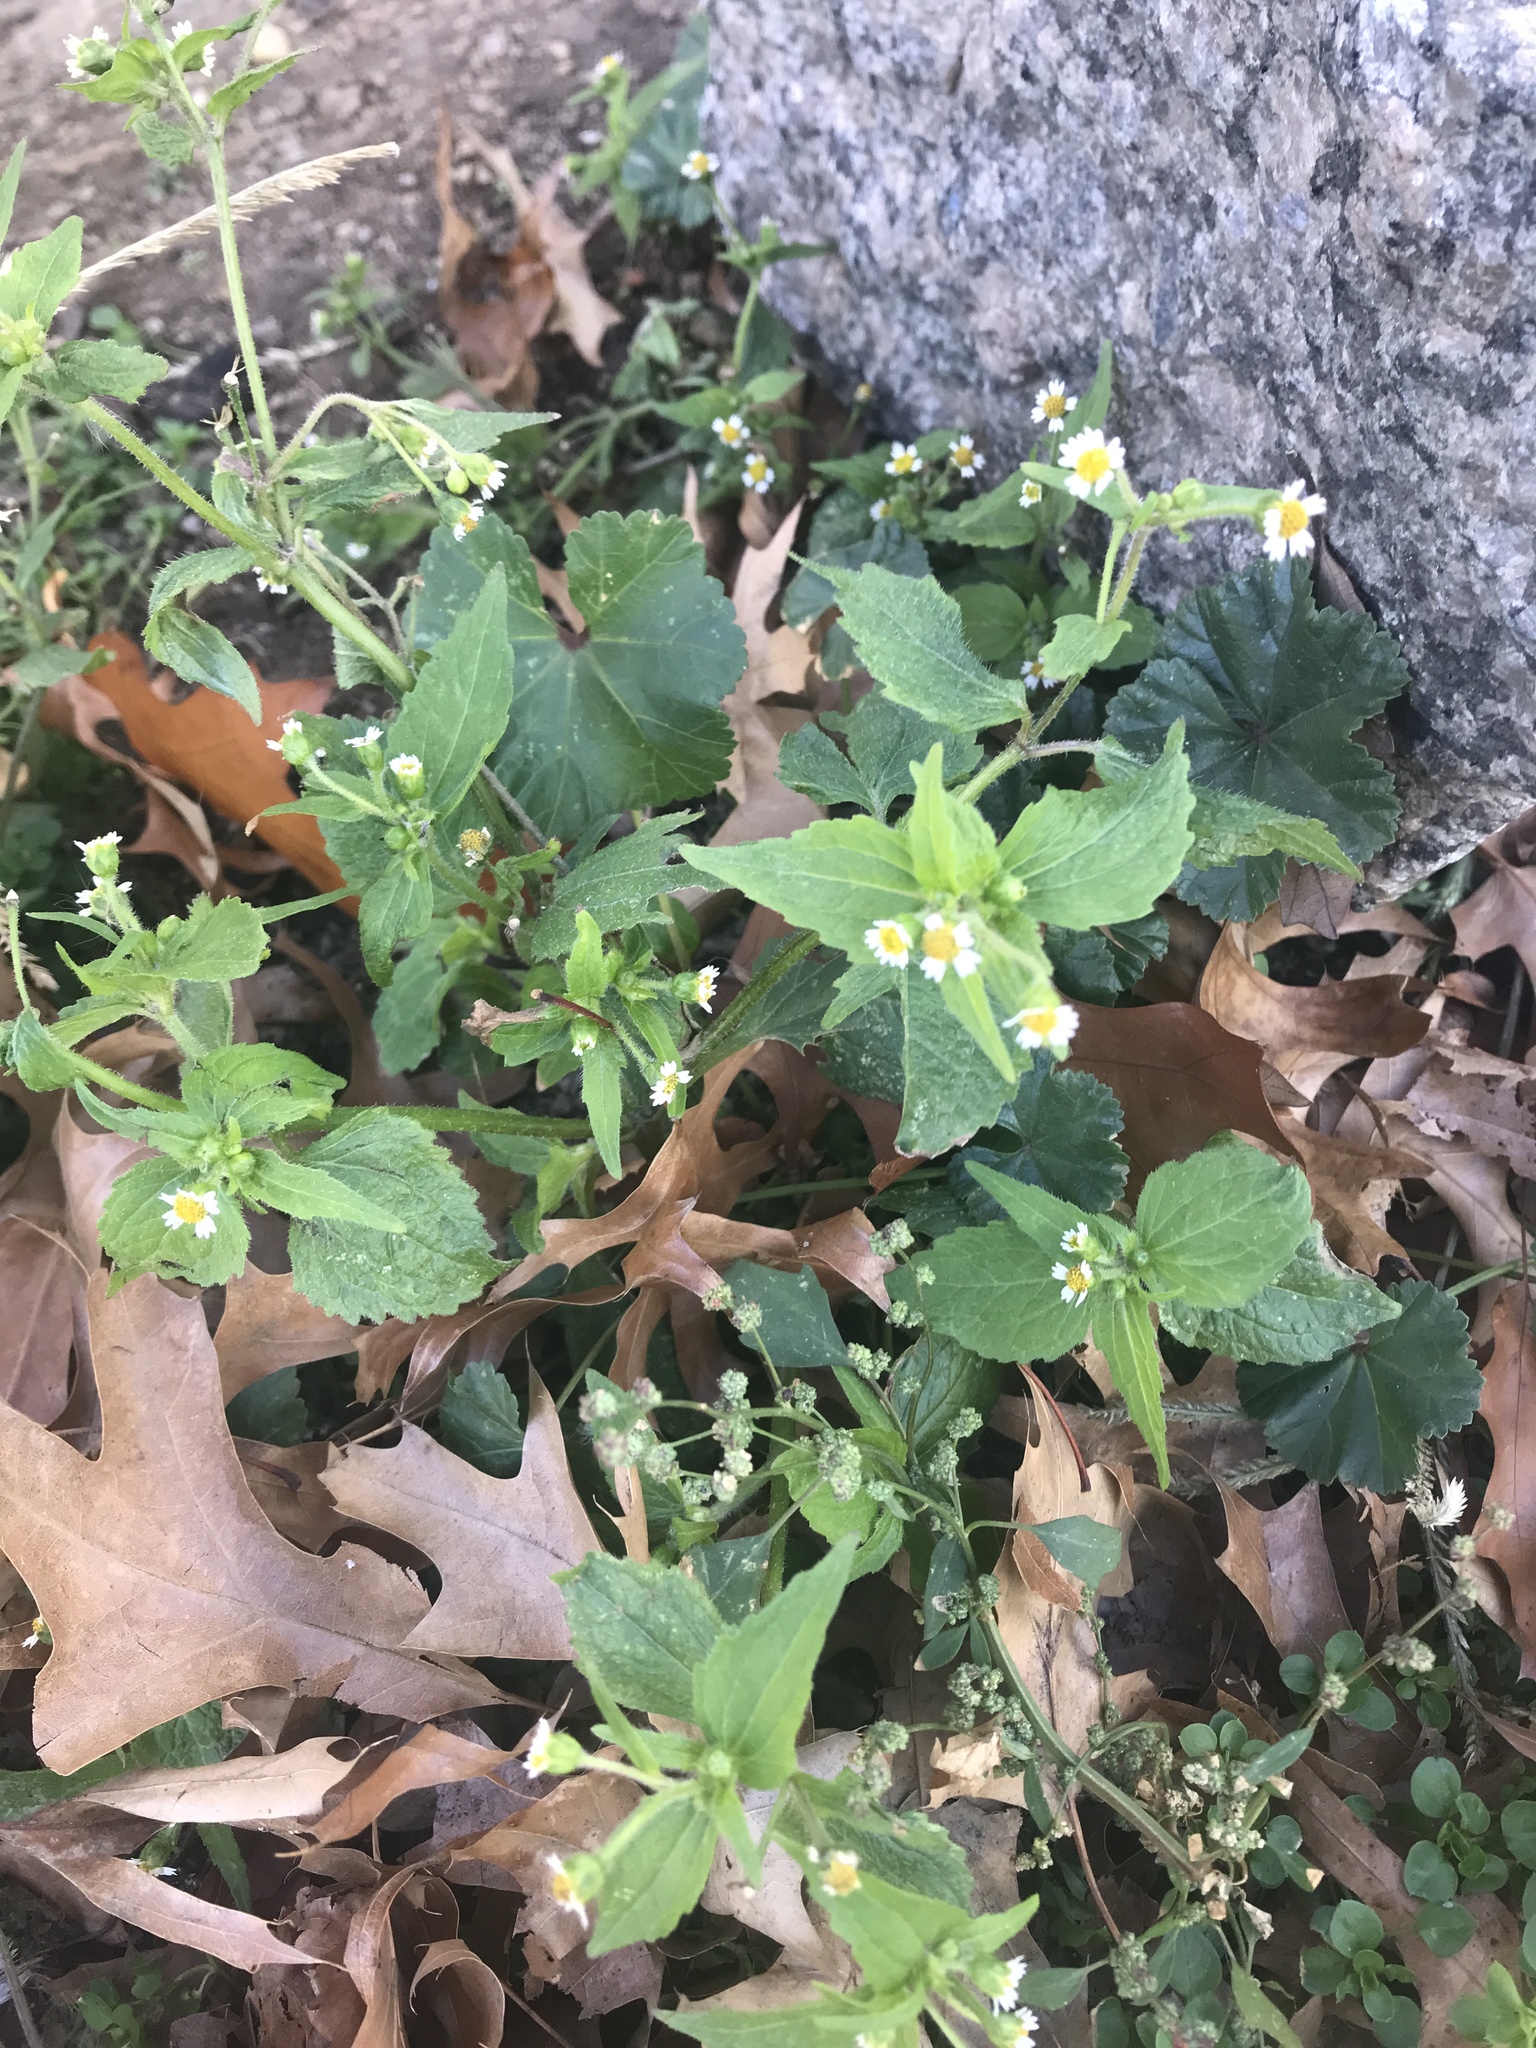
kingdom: Plantae
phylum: Tracheophyta
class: Magnoliopsida
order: Asterales
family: Asteraceae
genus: Galinsoga
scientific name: Galinsoga quadriradiata
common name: Shaggy soldier
